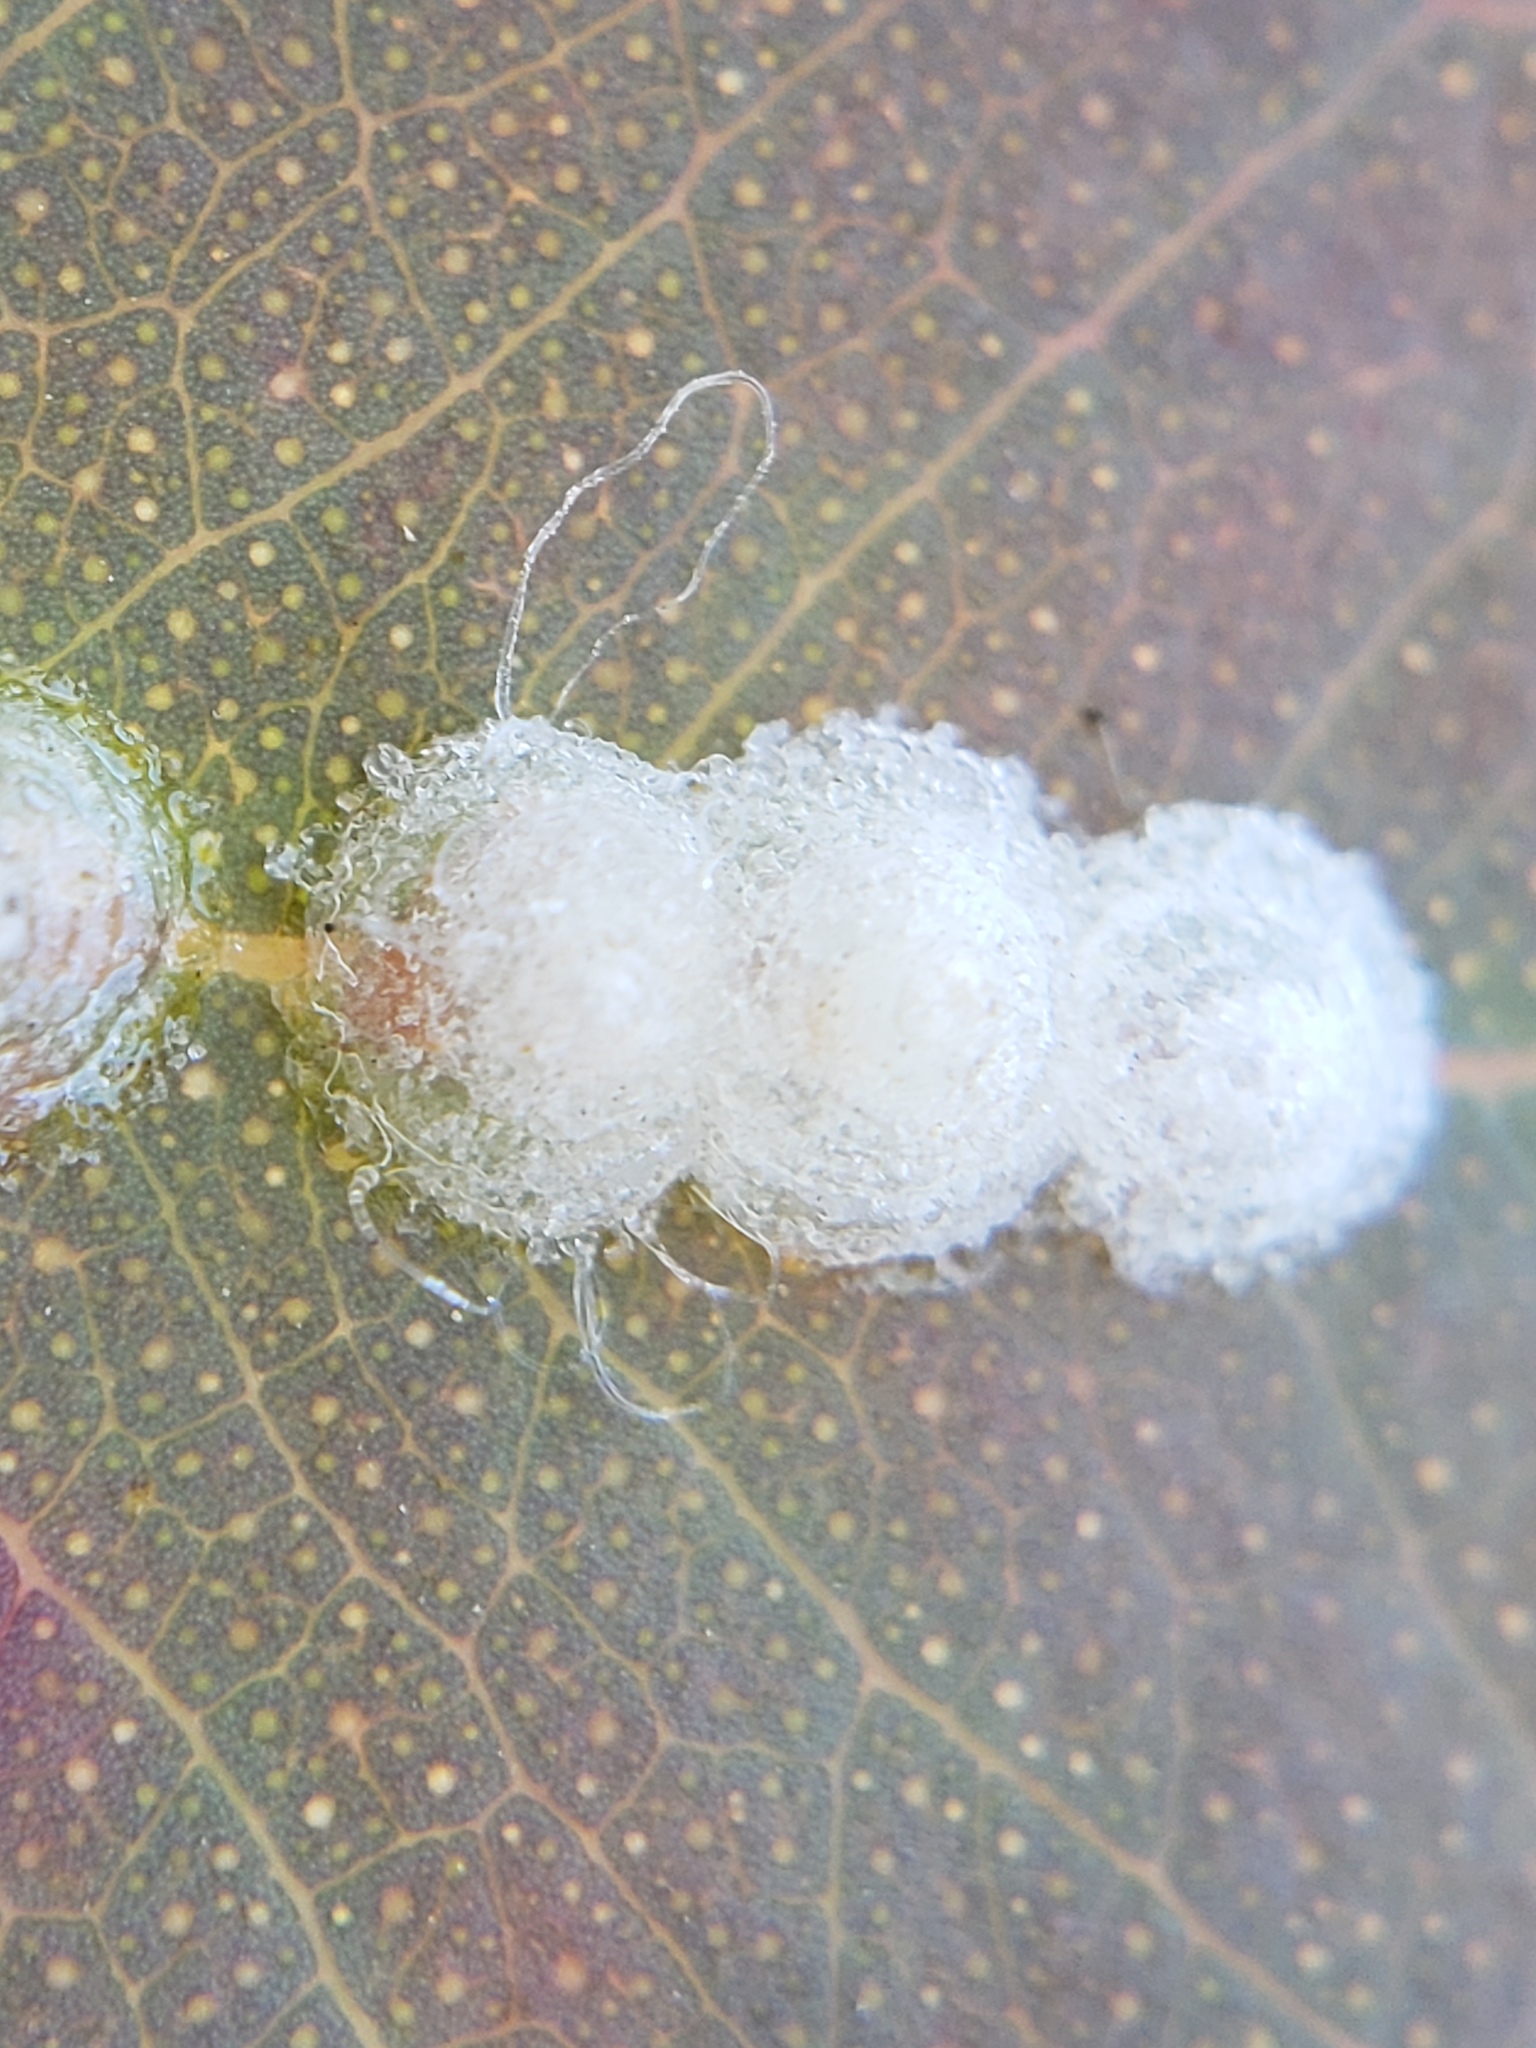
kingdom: Animalia
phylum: Arthropoda
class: Insecta
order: Hemiptera
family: Aphalaridae
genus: Glycaspis
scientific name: Glycaspis brimblecombei
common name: Red gum lerp psyllid
